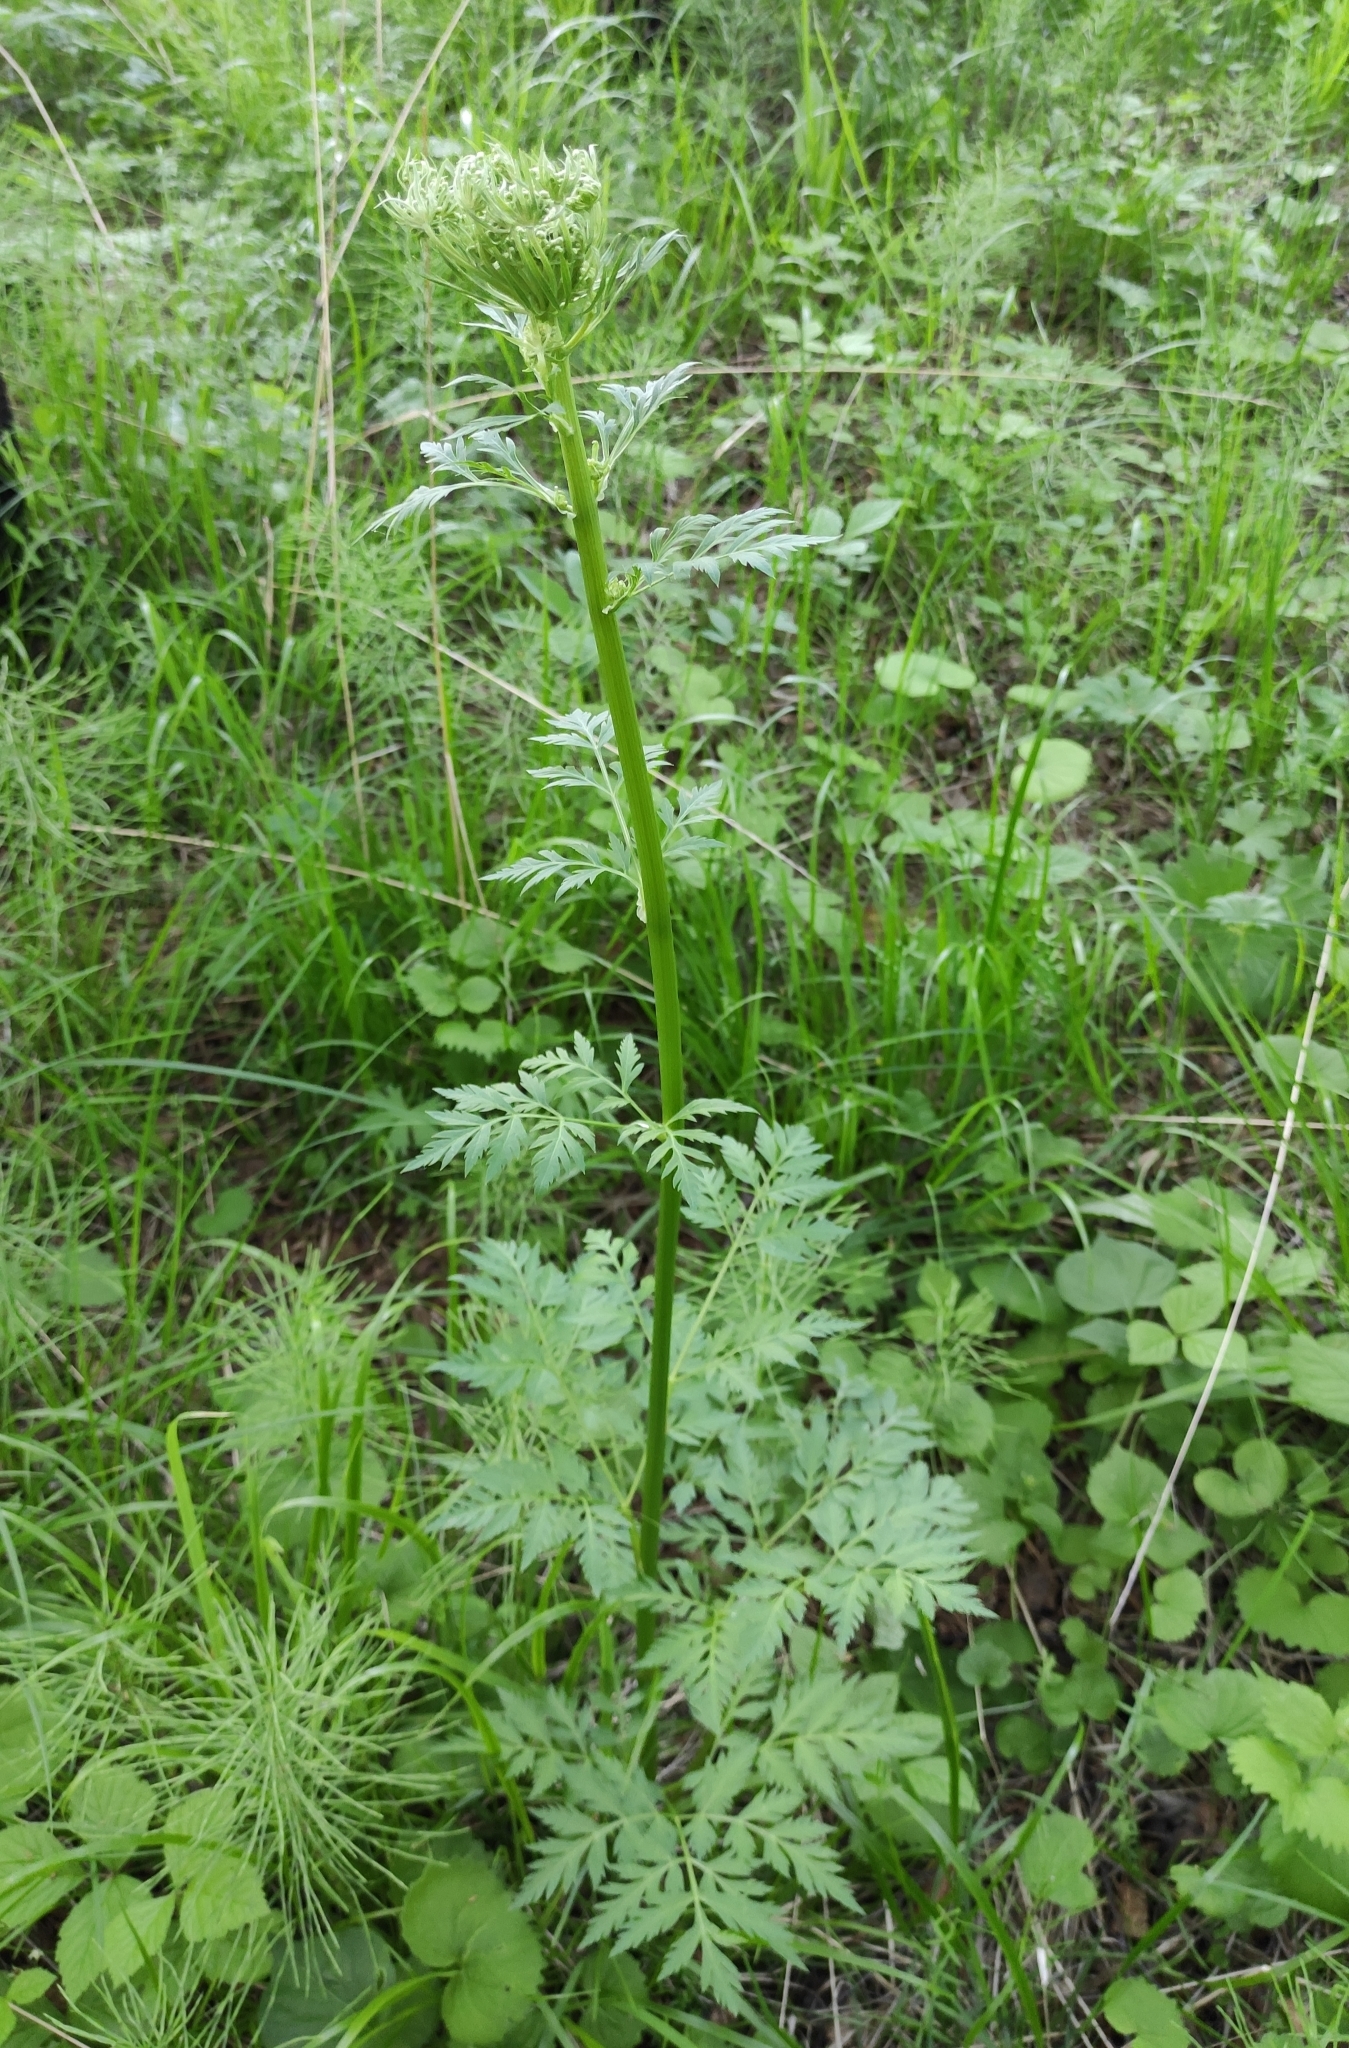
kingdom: Plantae
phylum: Tracheophyta
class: Magnoliopsida
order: Apiales
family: Apiaceae
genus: Pleurospermum
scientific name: Pleurospermum uralense
